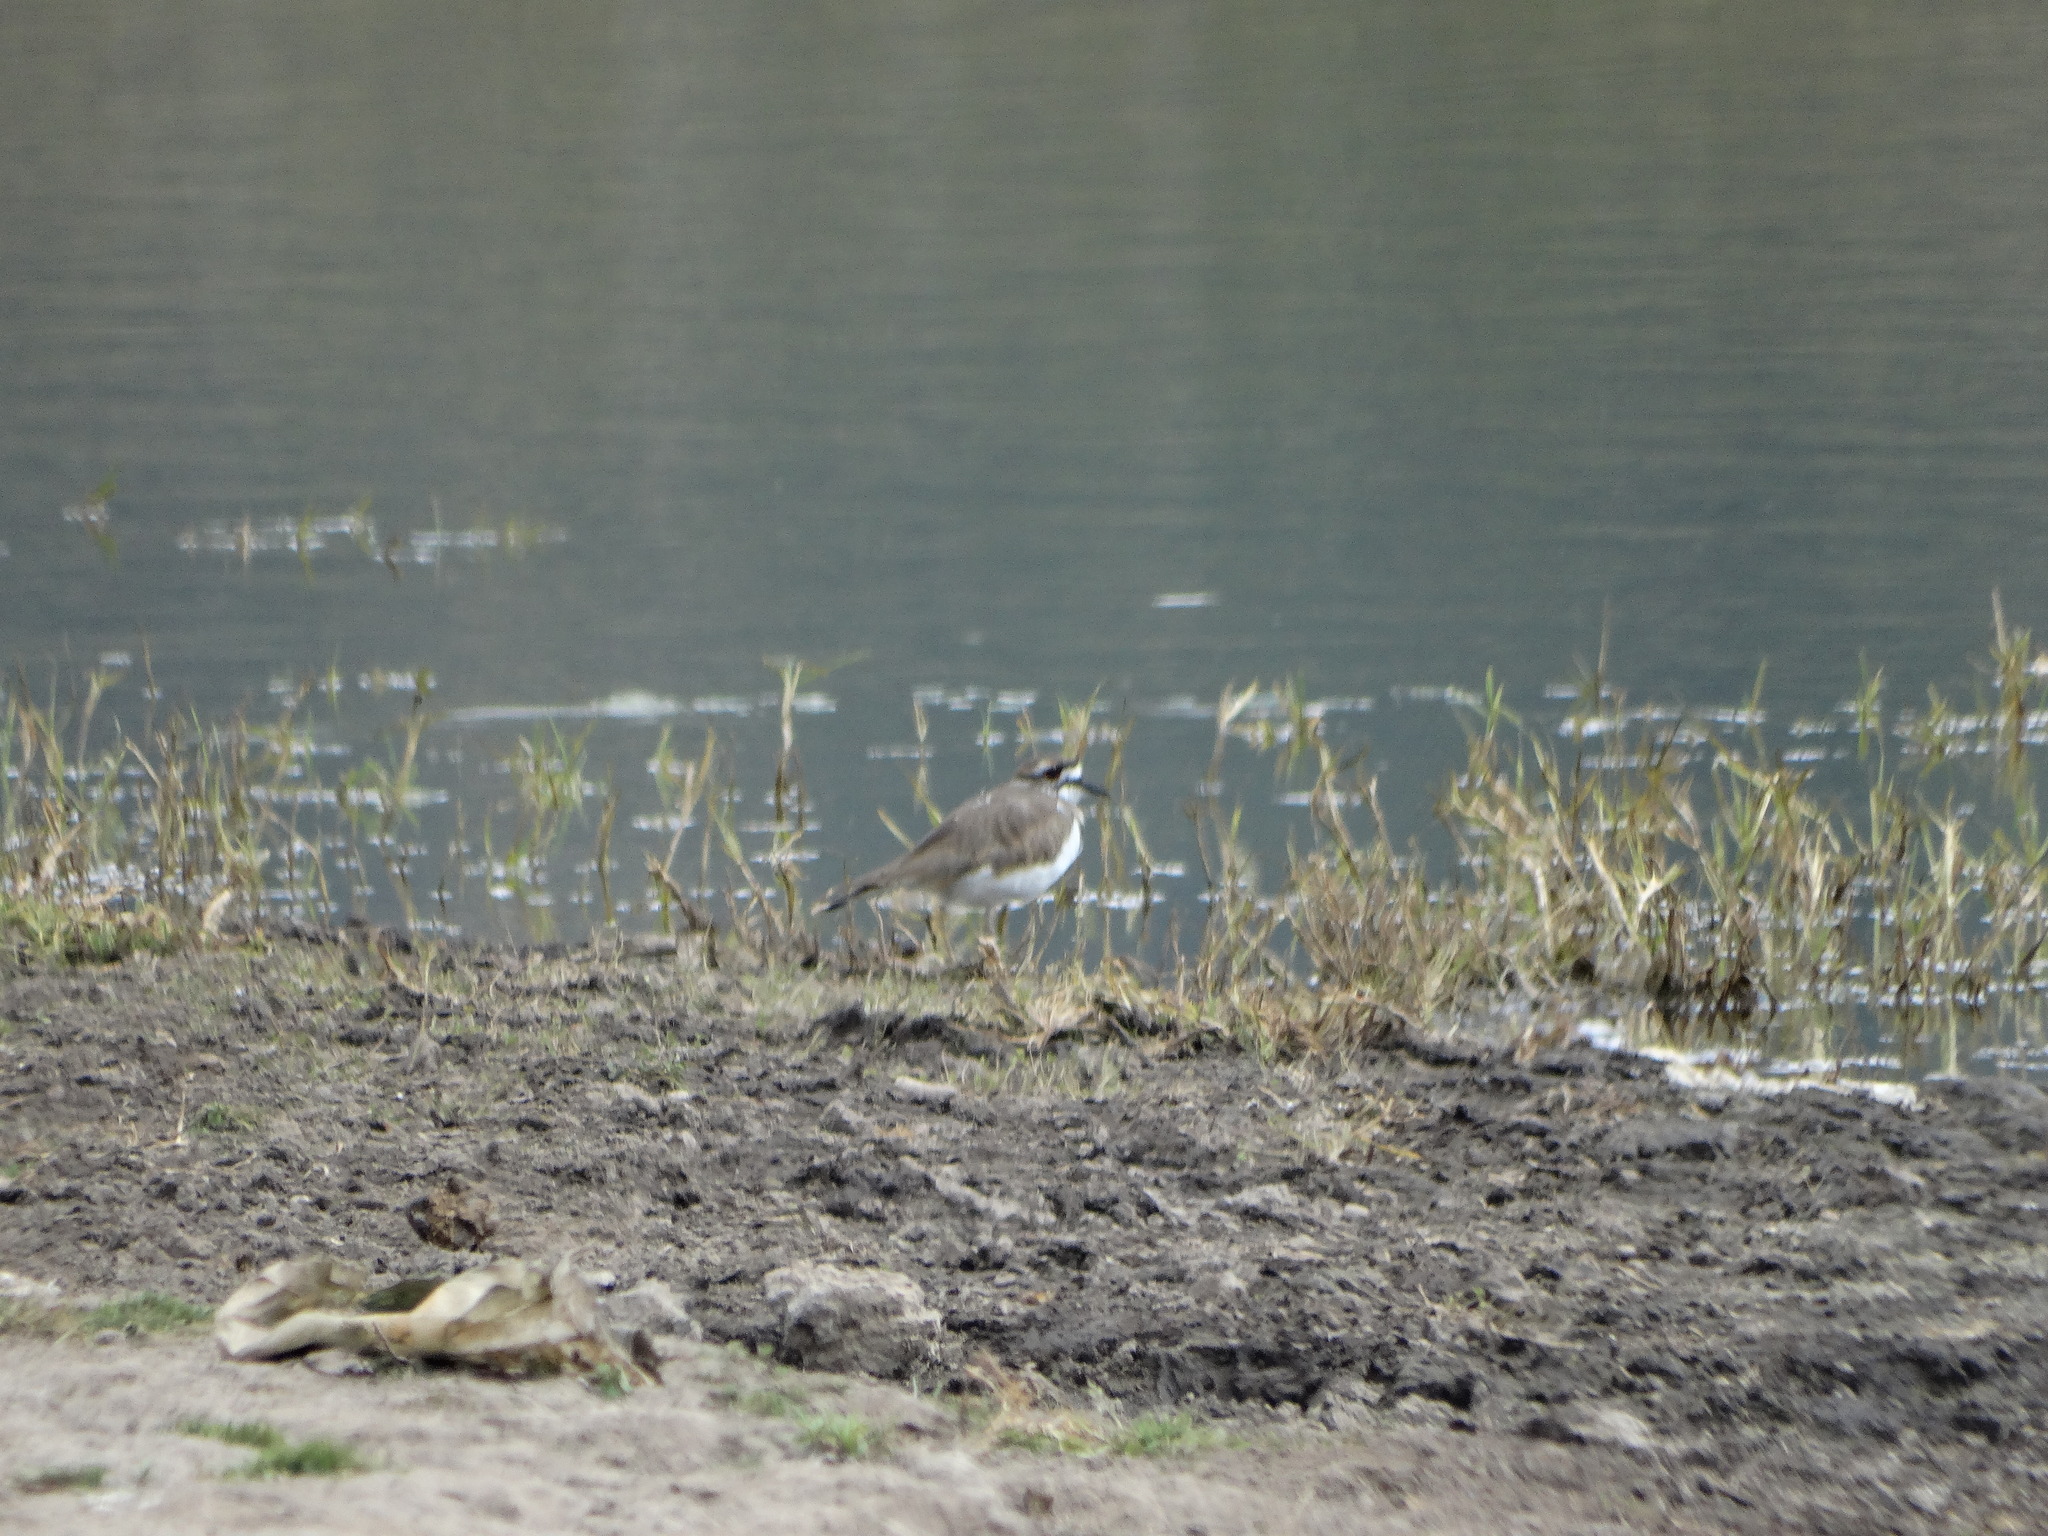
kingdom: Animalia
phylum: Chordata
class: Aves
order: Charadriiformes
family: Charadriidae
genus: Charadrius
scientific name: Charadrius vociferus
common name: Killdeer
